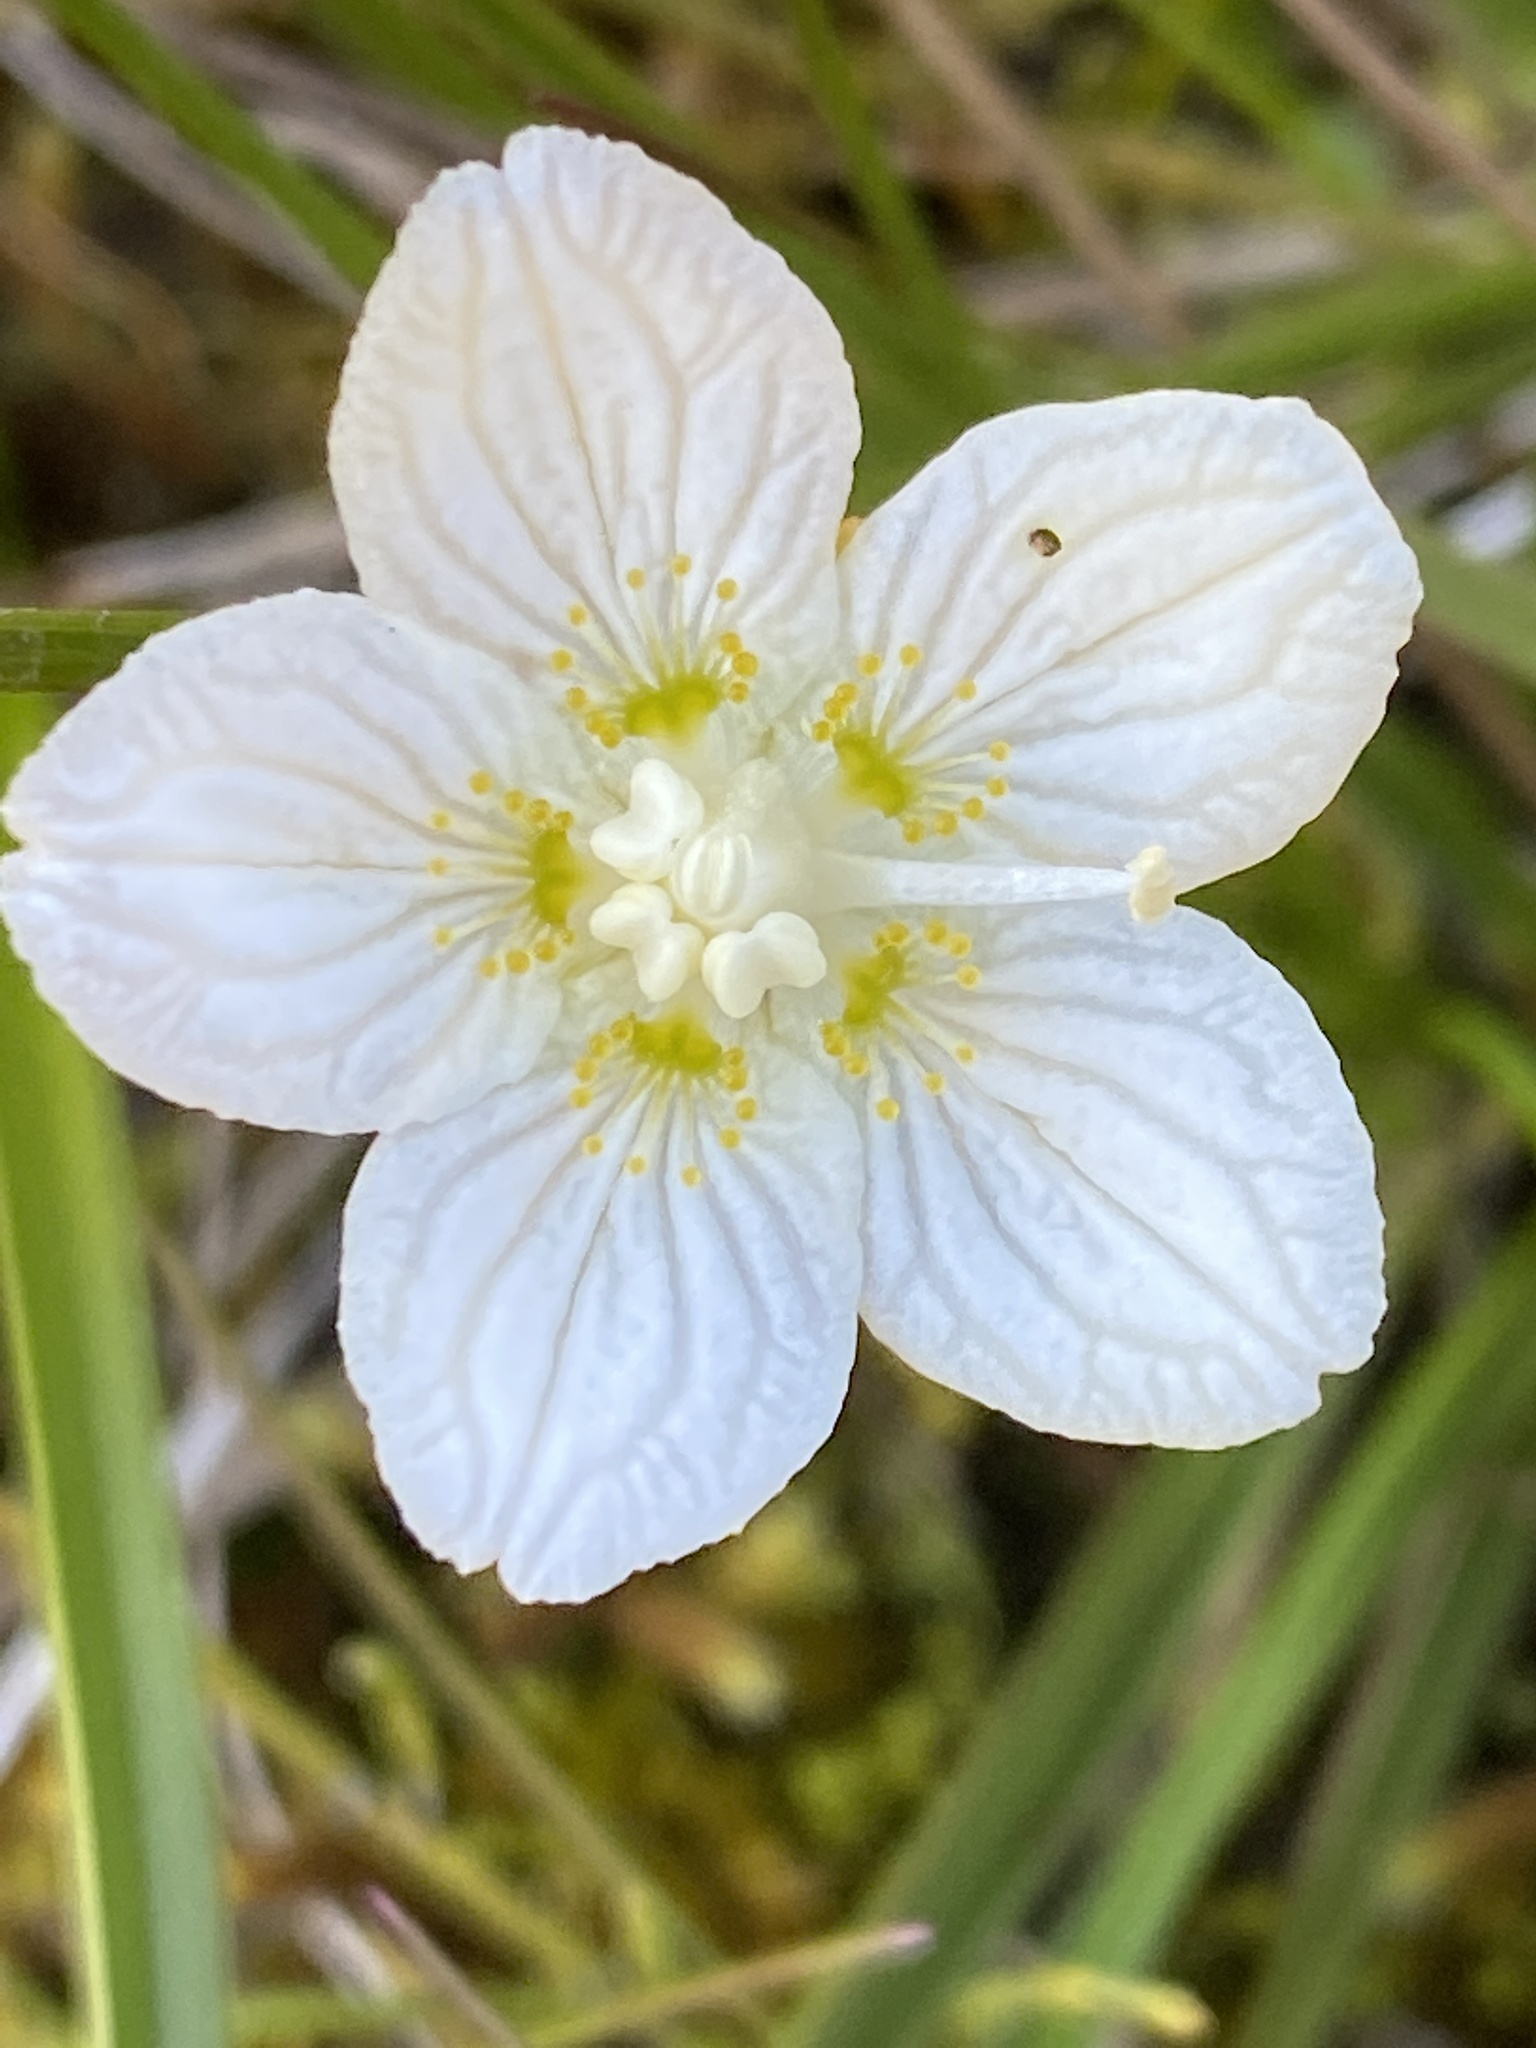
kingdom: Plantae
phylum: Tracheophyta
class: Magnoliopsida
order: Celastrales
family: Parnassiaceae
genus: Parnassia
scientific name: Parnassia palustris
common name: Grass-of-parnassus
